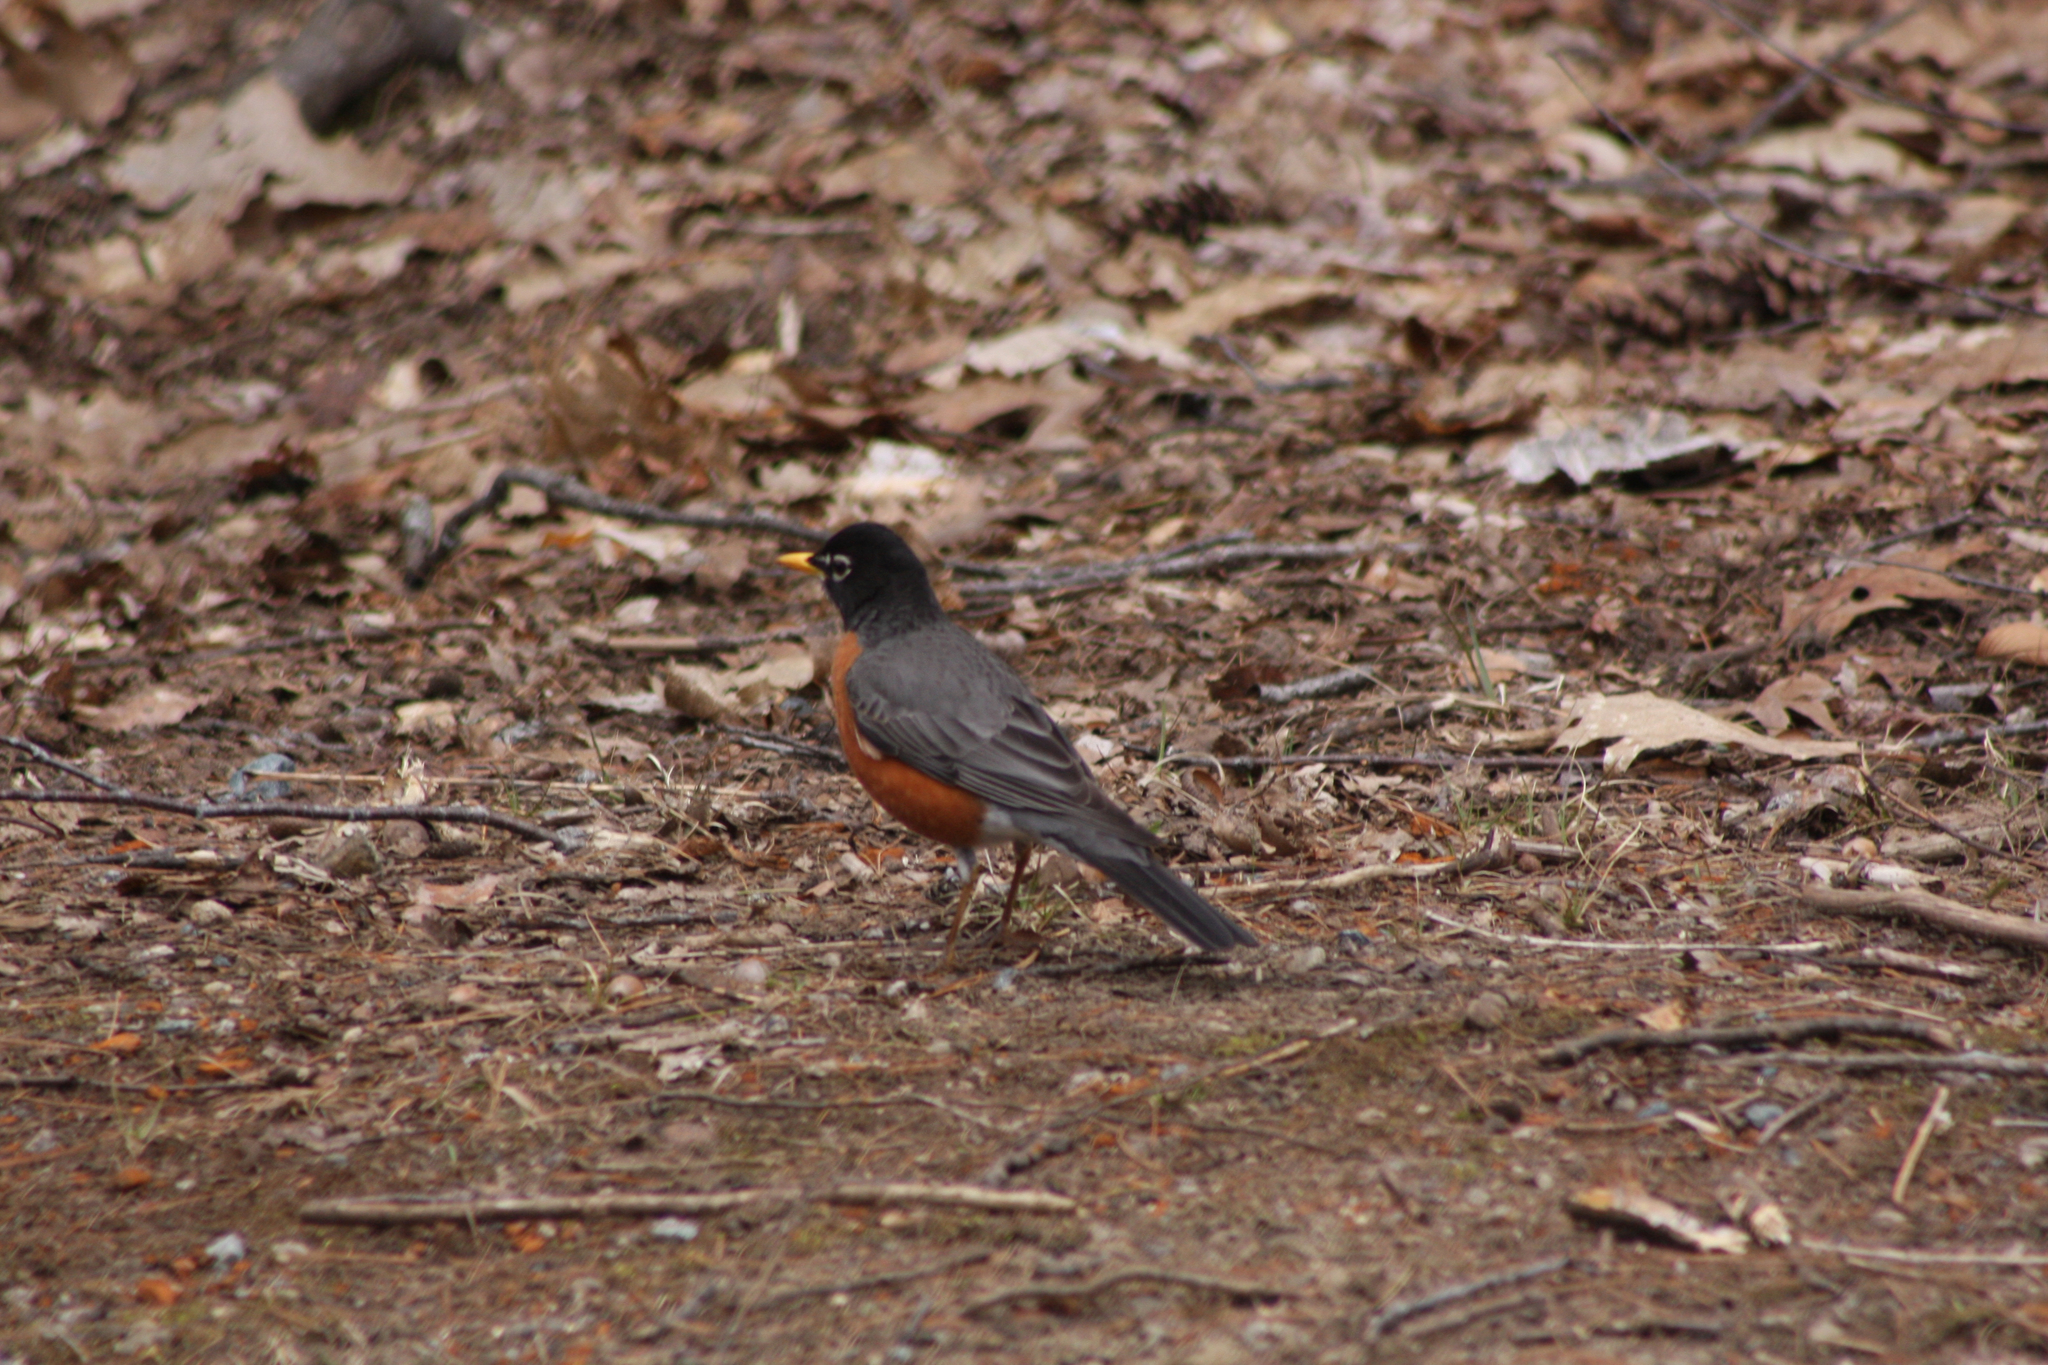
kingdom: Animalia
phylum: Chordata
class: Aves
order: Passeriformes
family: Turdidae
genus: Turdus
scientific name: Turdus migratorius
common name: American robin
